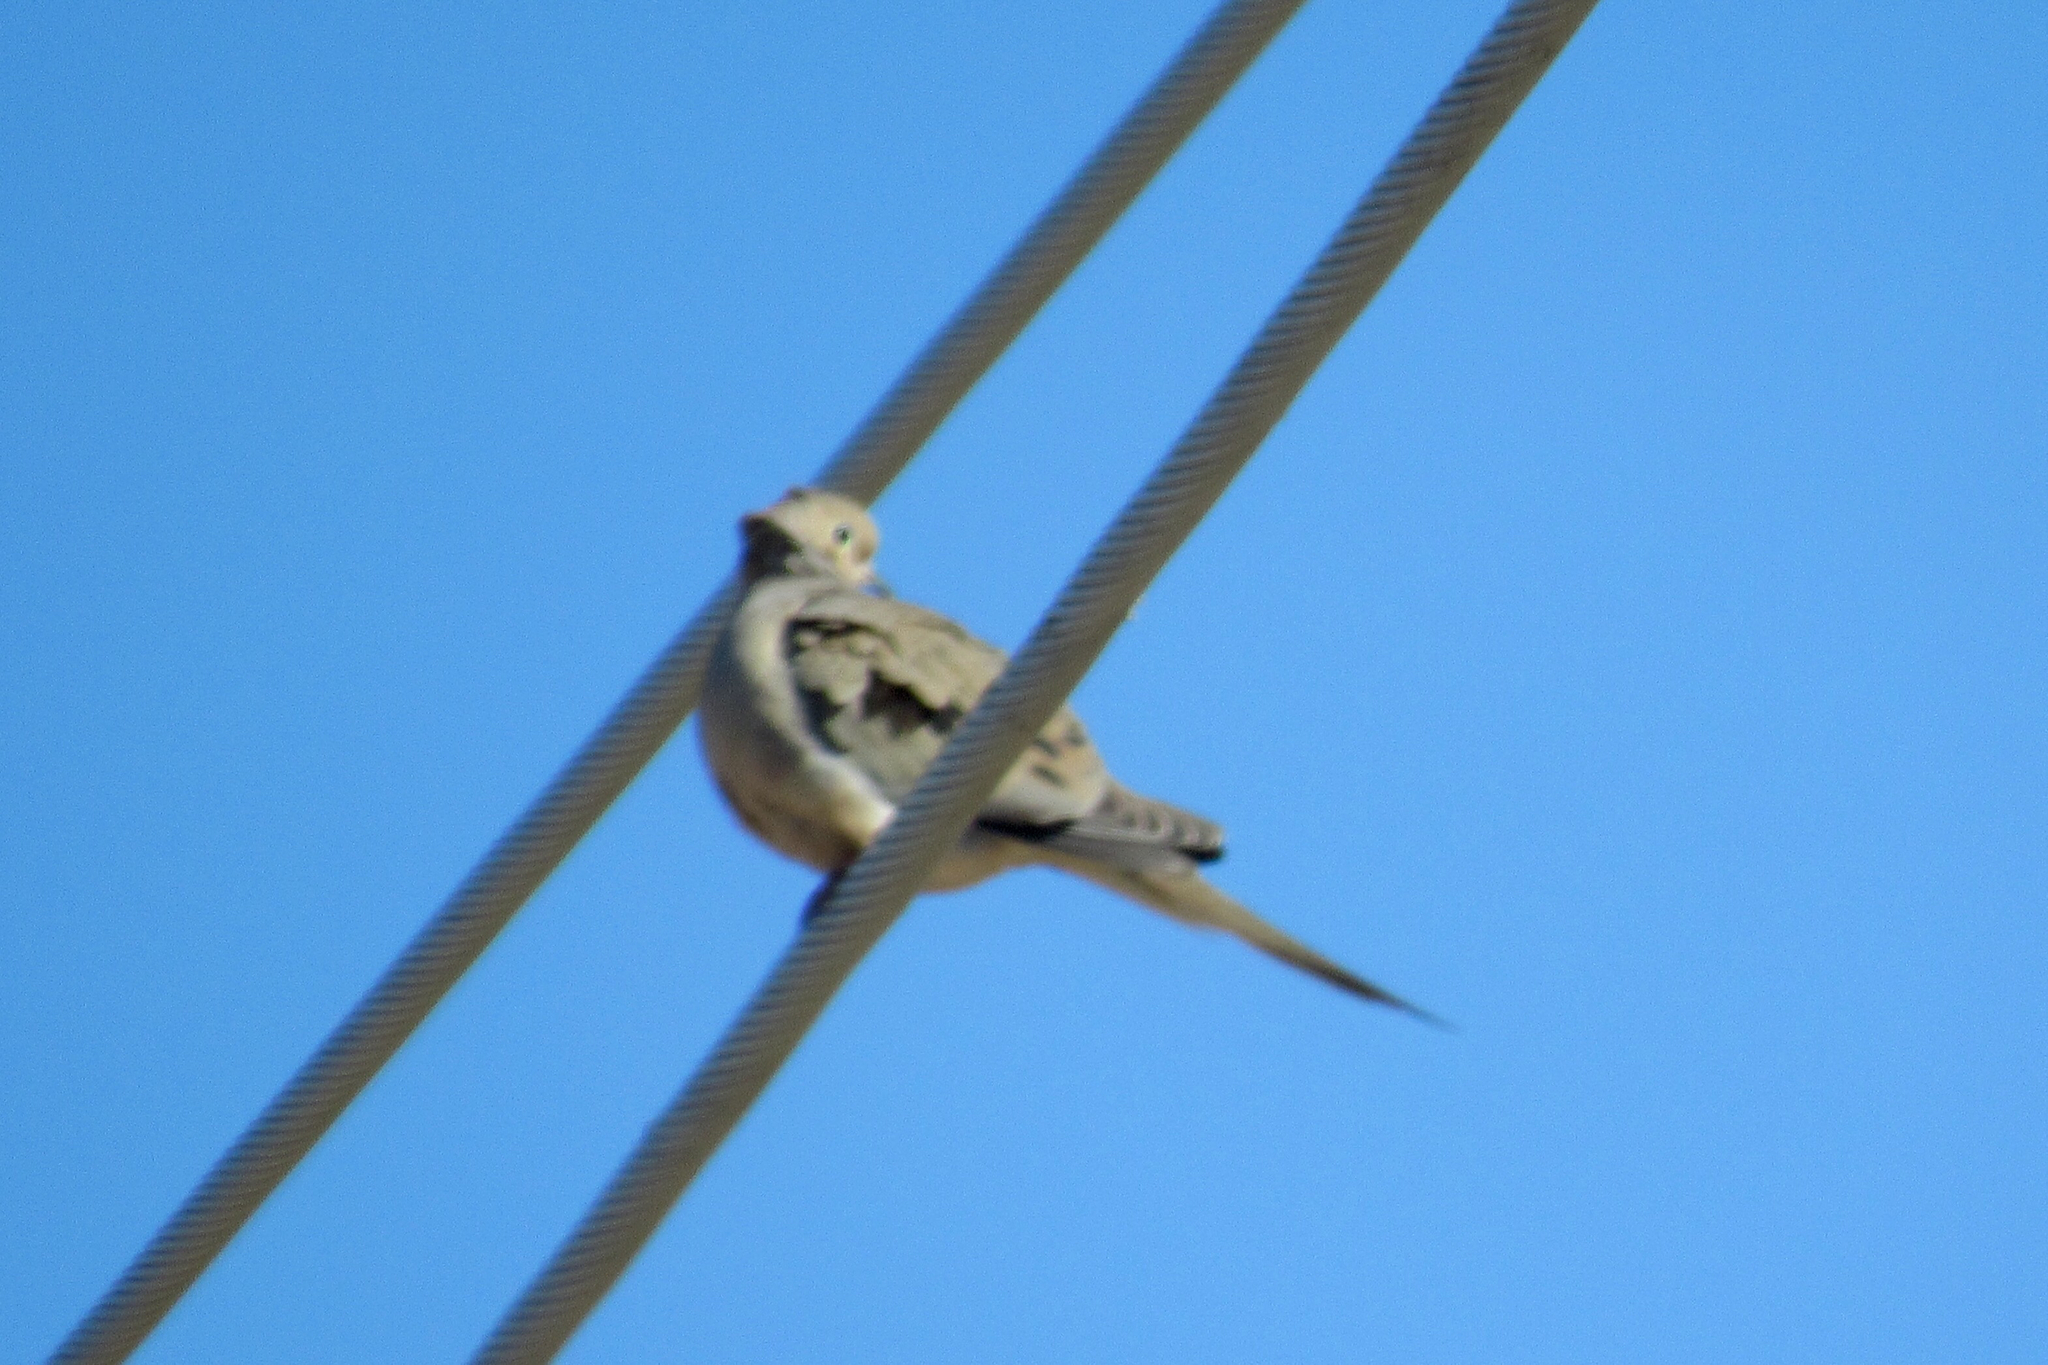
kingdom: Animalia
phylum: Chordata
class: Aves
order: Columbiformes
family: Columbidae
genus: Zenaida
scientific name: Zenaida macroura
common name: Mourning dove
